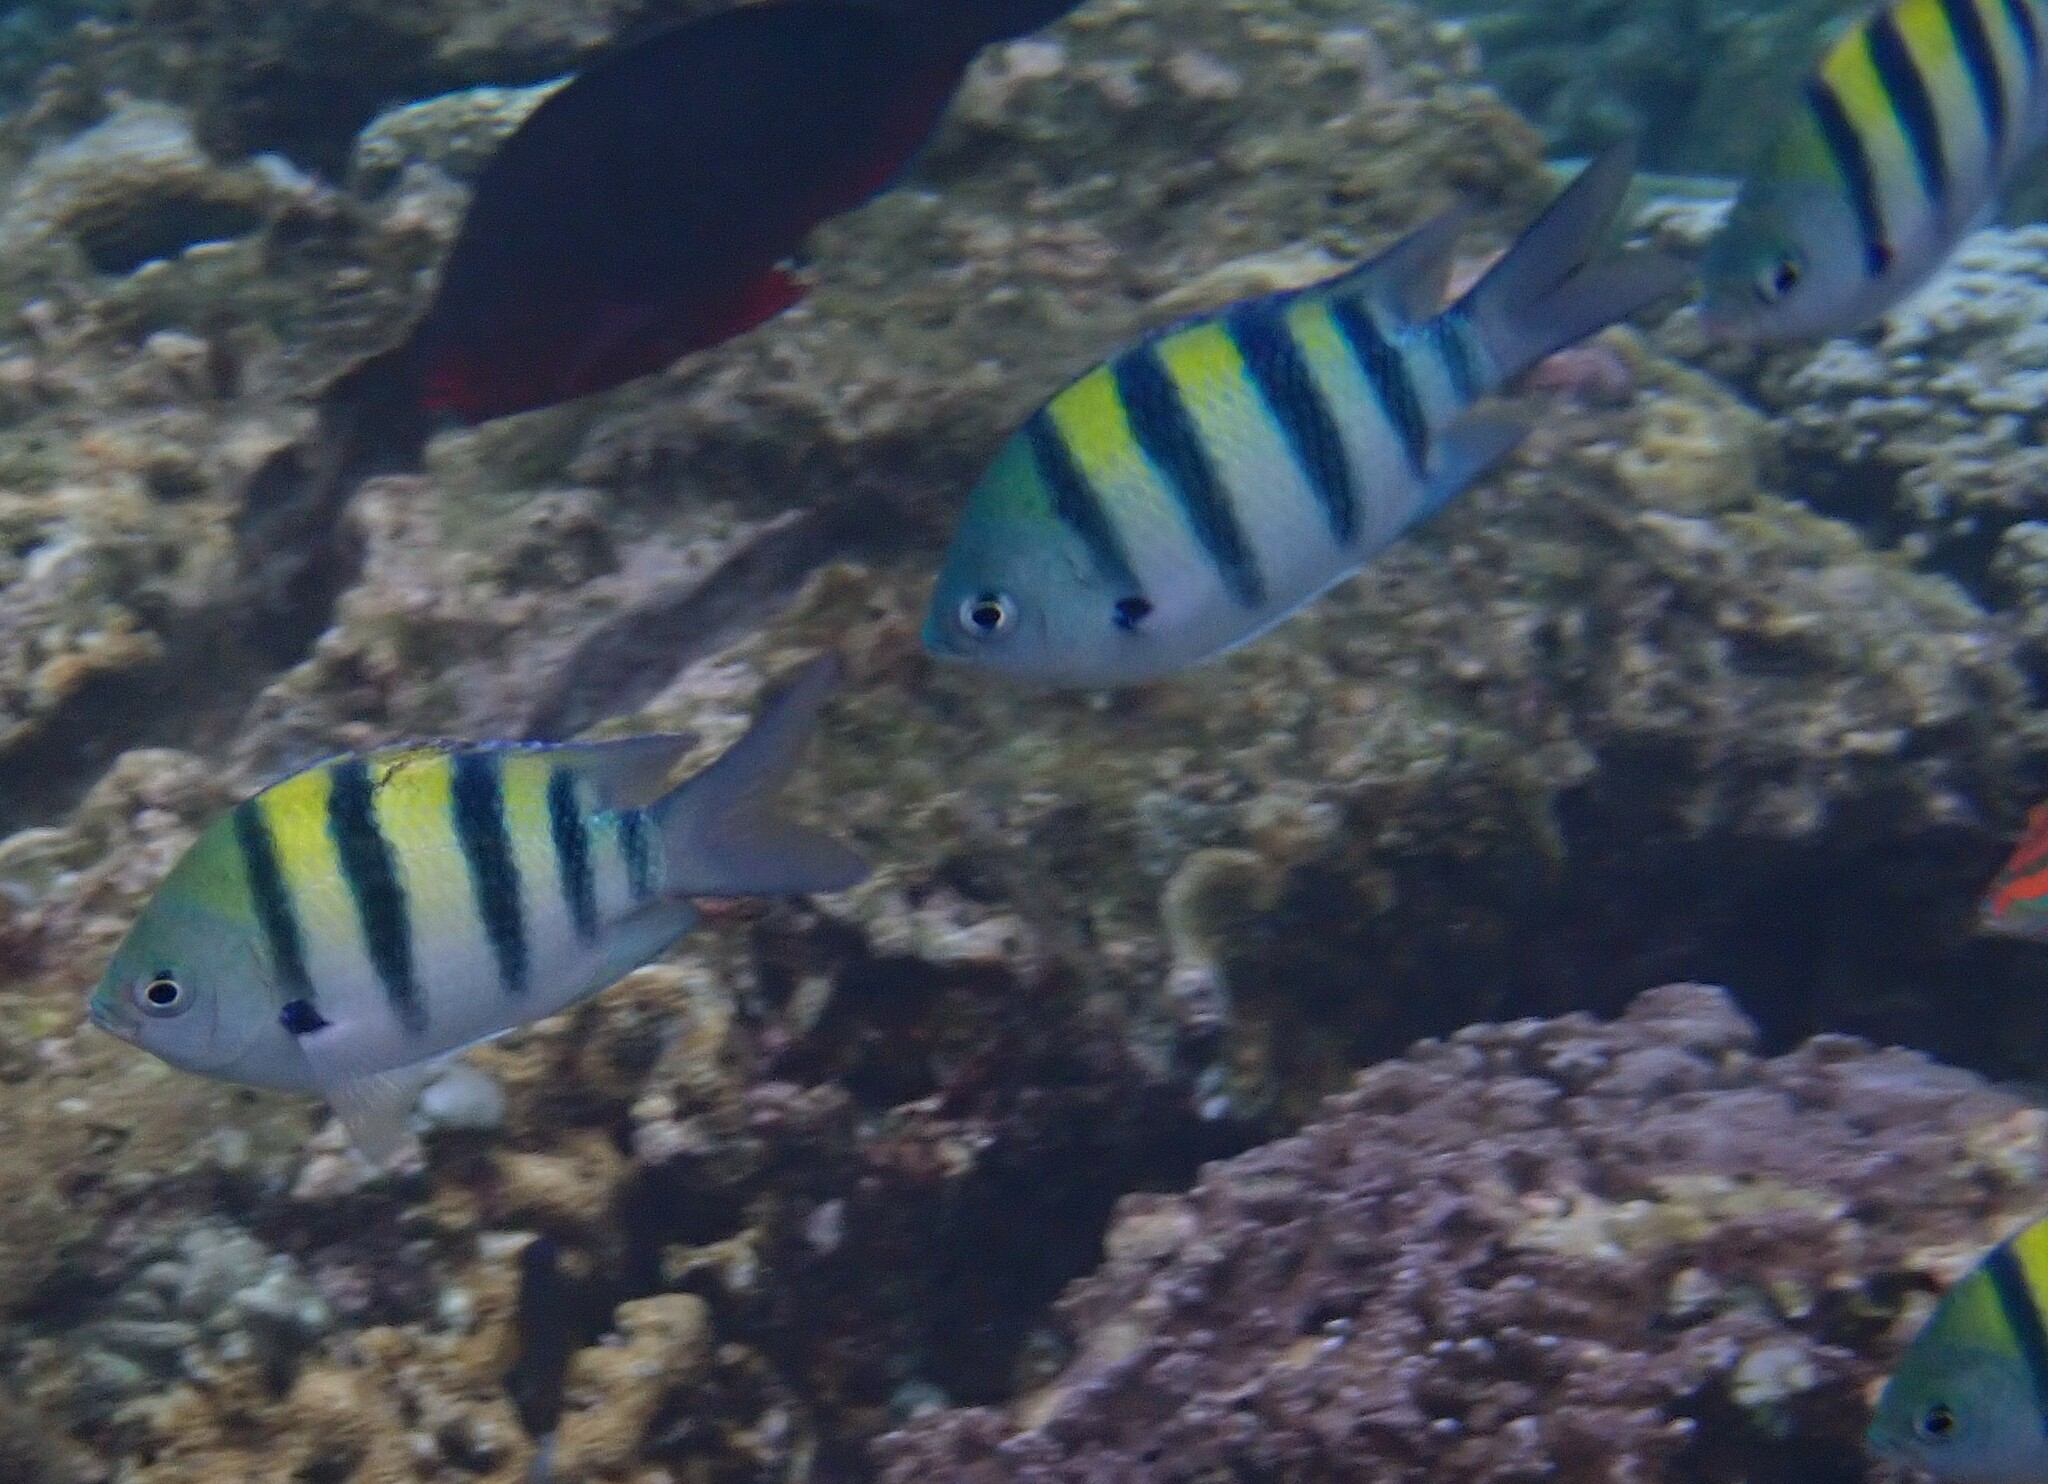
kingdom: Animalia
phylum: Chordata
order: Perciformes
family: Pomacentridae
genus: Abudefduf
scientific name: Abudefduf vaigiensis
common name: Indo-pacific sergeant
